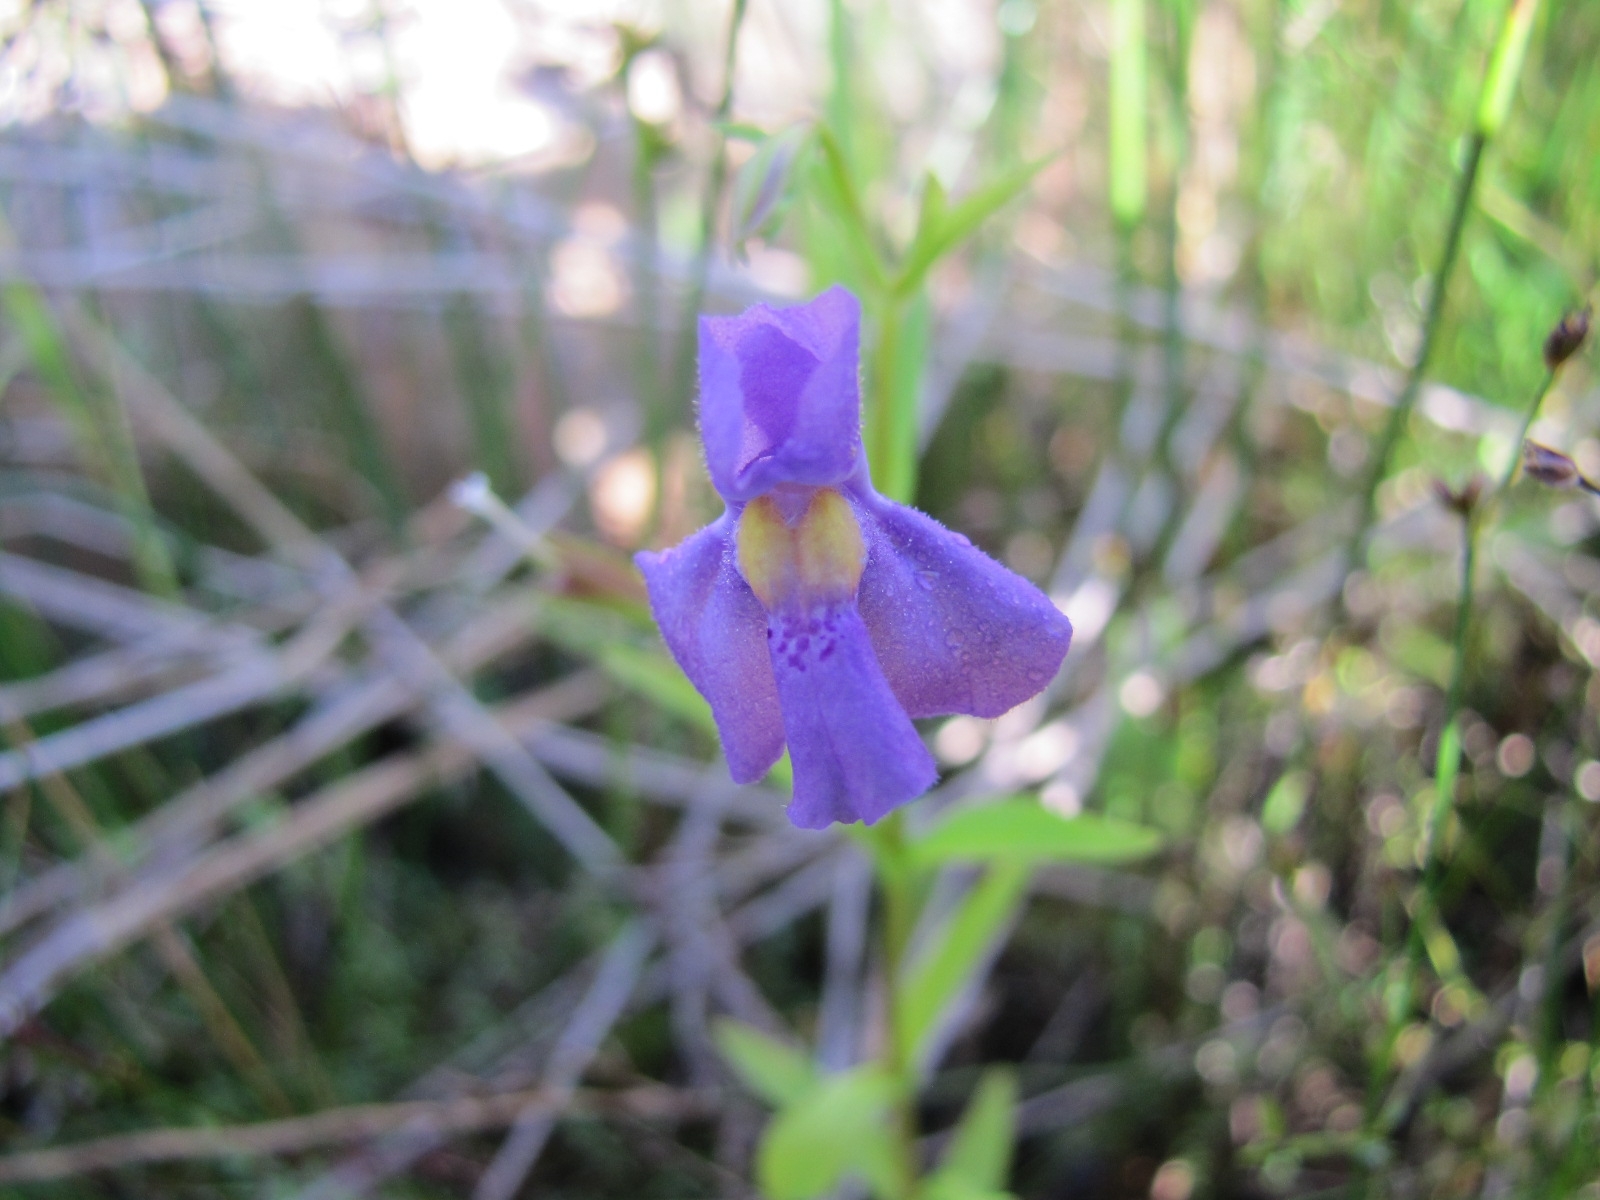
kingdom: Plantae
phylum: Tracheophyta
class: Magnoliopsida
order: Lamiales
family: Phrymaceae
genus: Mimulus
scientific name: Mimulus ringens
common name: Allegheny monkeyflower
